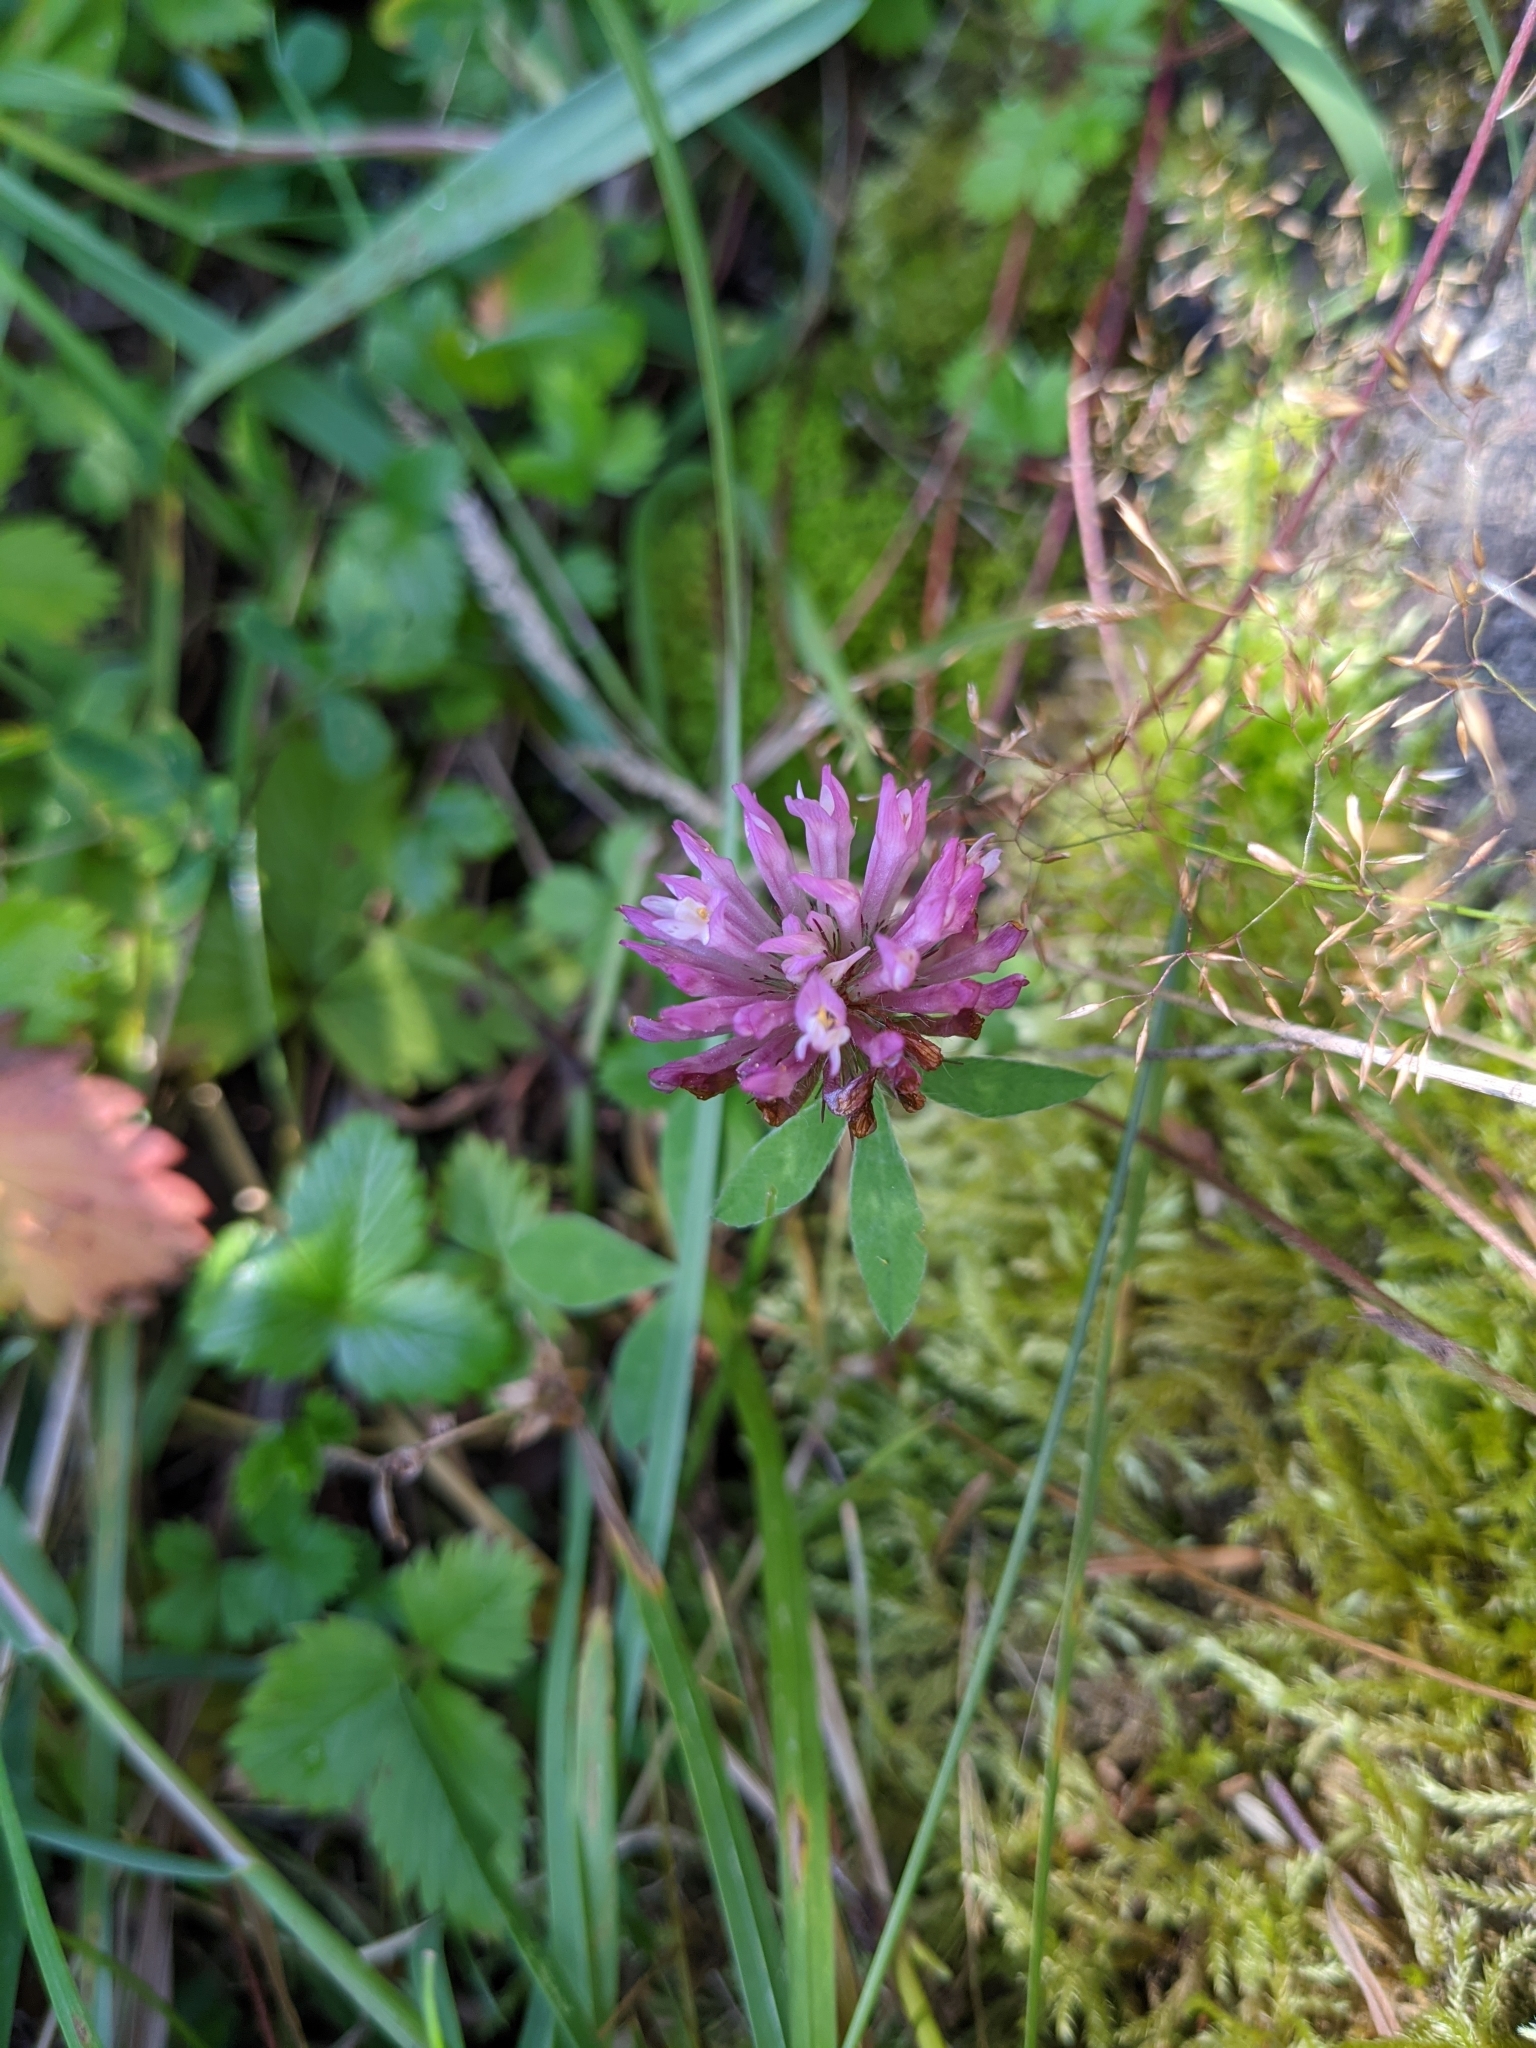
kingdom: Plantae
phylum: Tracheophyta
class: Magnoliopsida
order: Fabales
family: Fabaceae
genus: Trifolium
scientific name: Trifolium pratense
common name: Red clover
